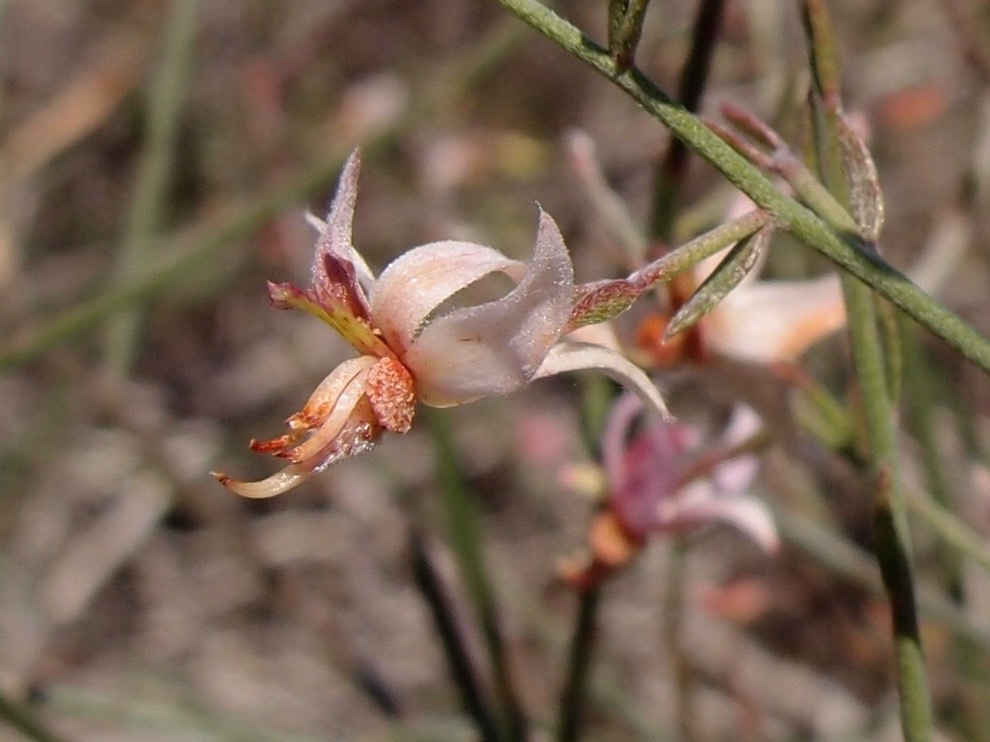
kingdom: Plantae
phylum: Tracheophyta
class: Magnoliopsida
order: Zygophyllales
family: Krameriaceae
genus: Krameria
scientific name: Krameria bicolor
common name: White ratany
